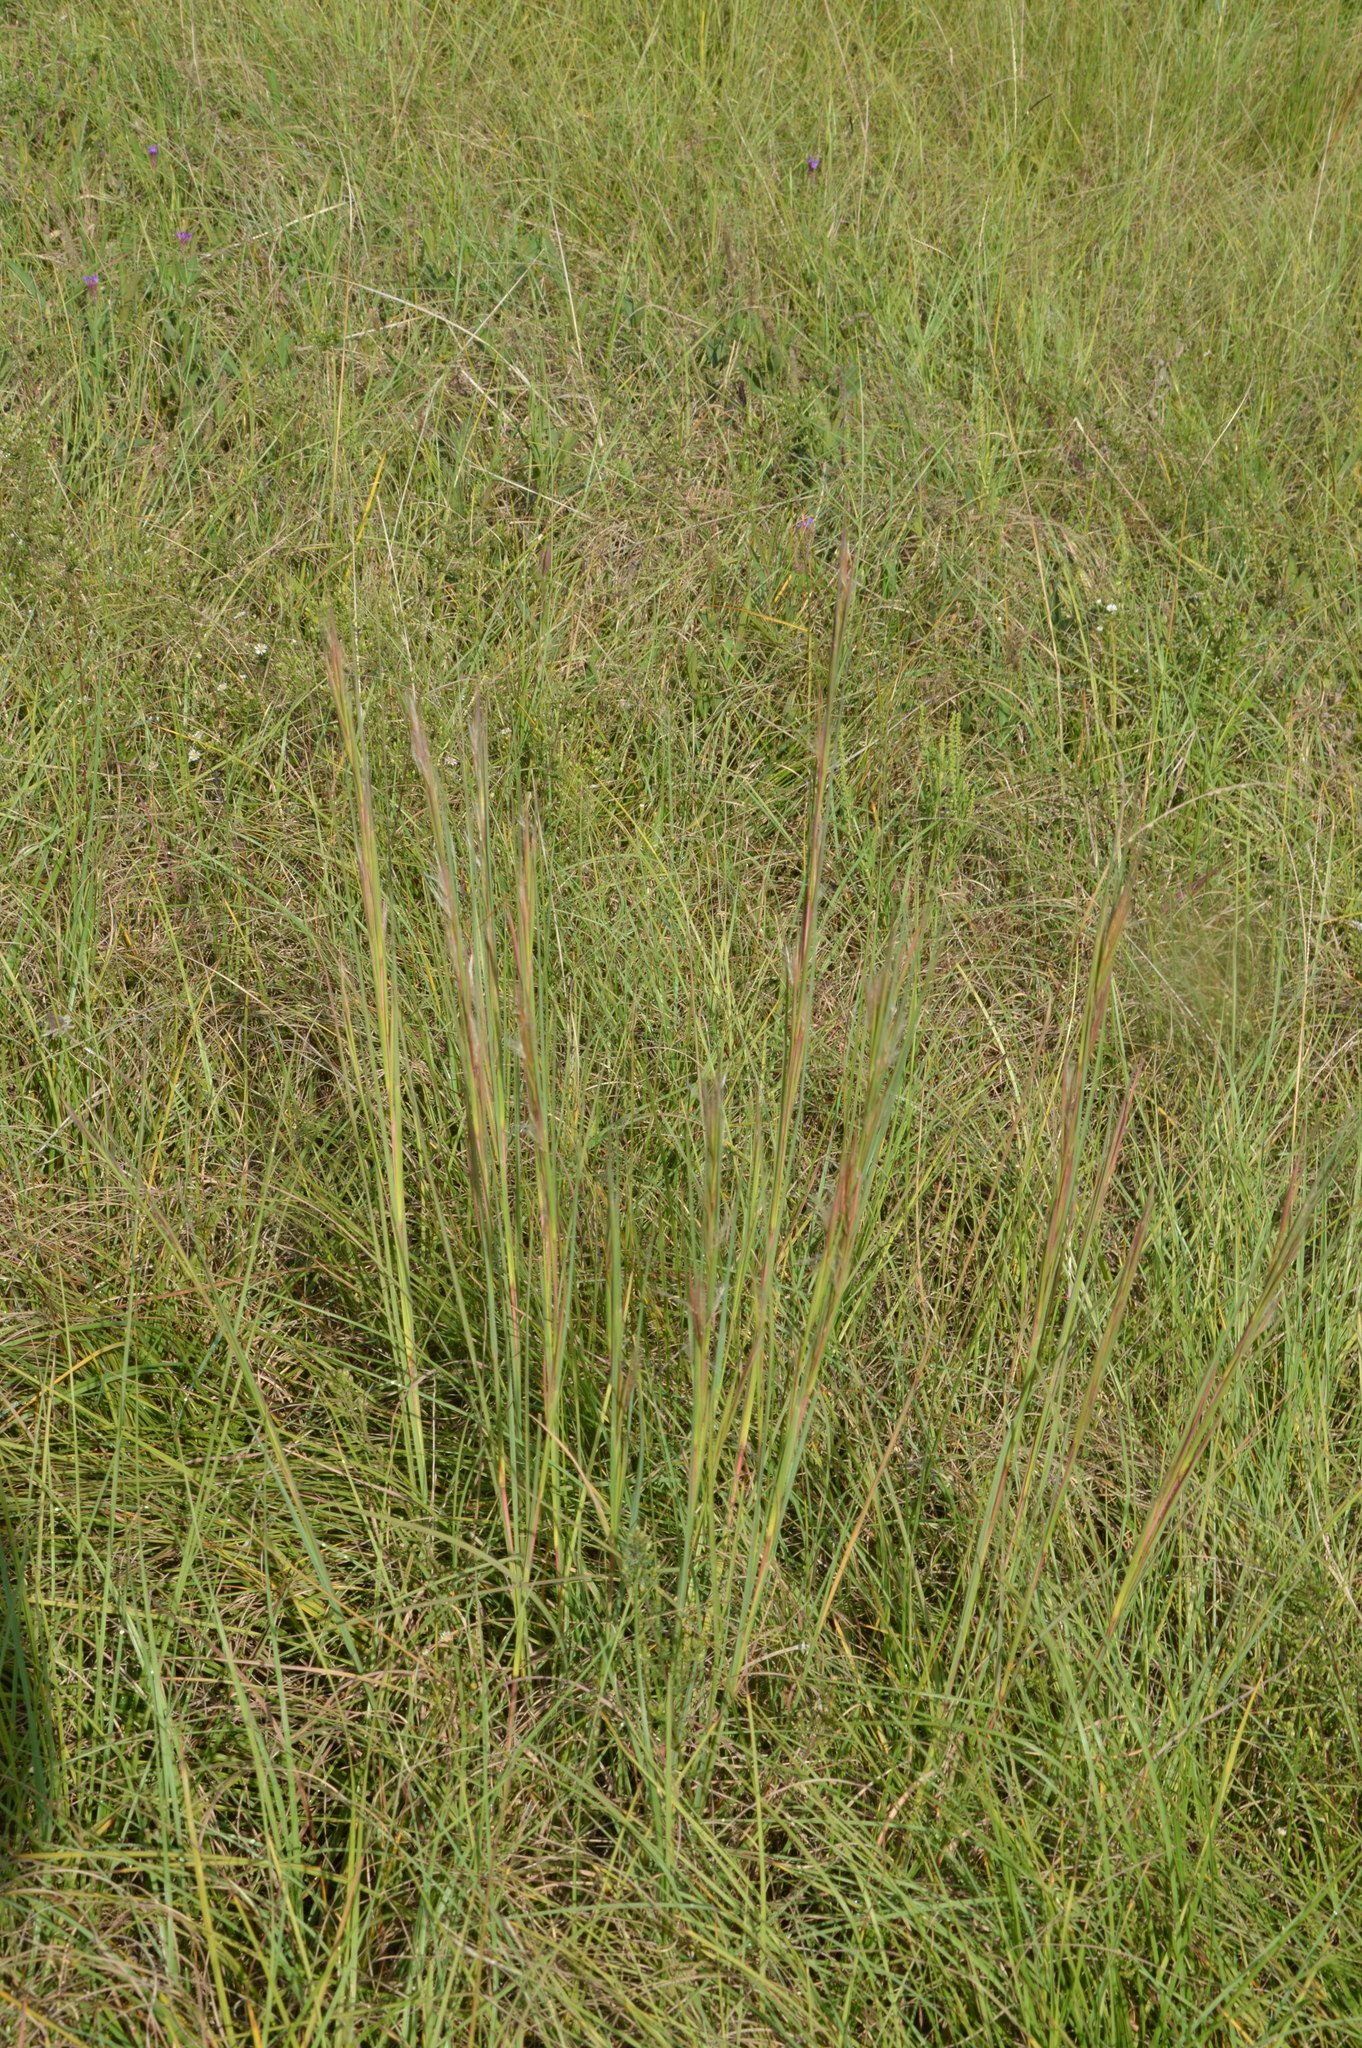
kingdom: Plantae
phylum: Tracheophyta
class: Liliopsida
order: Poales
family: Poaceae
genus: Andropogon
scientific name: Andropogon virginicus
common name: Broomsedge bluestem
